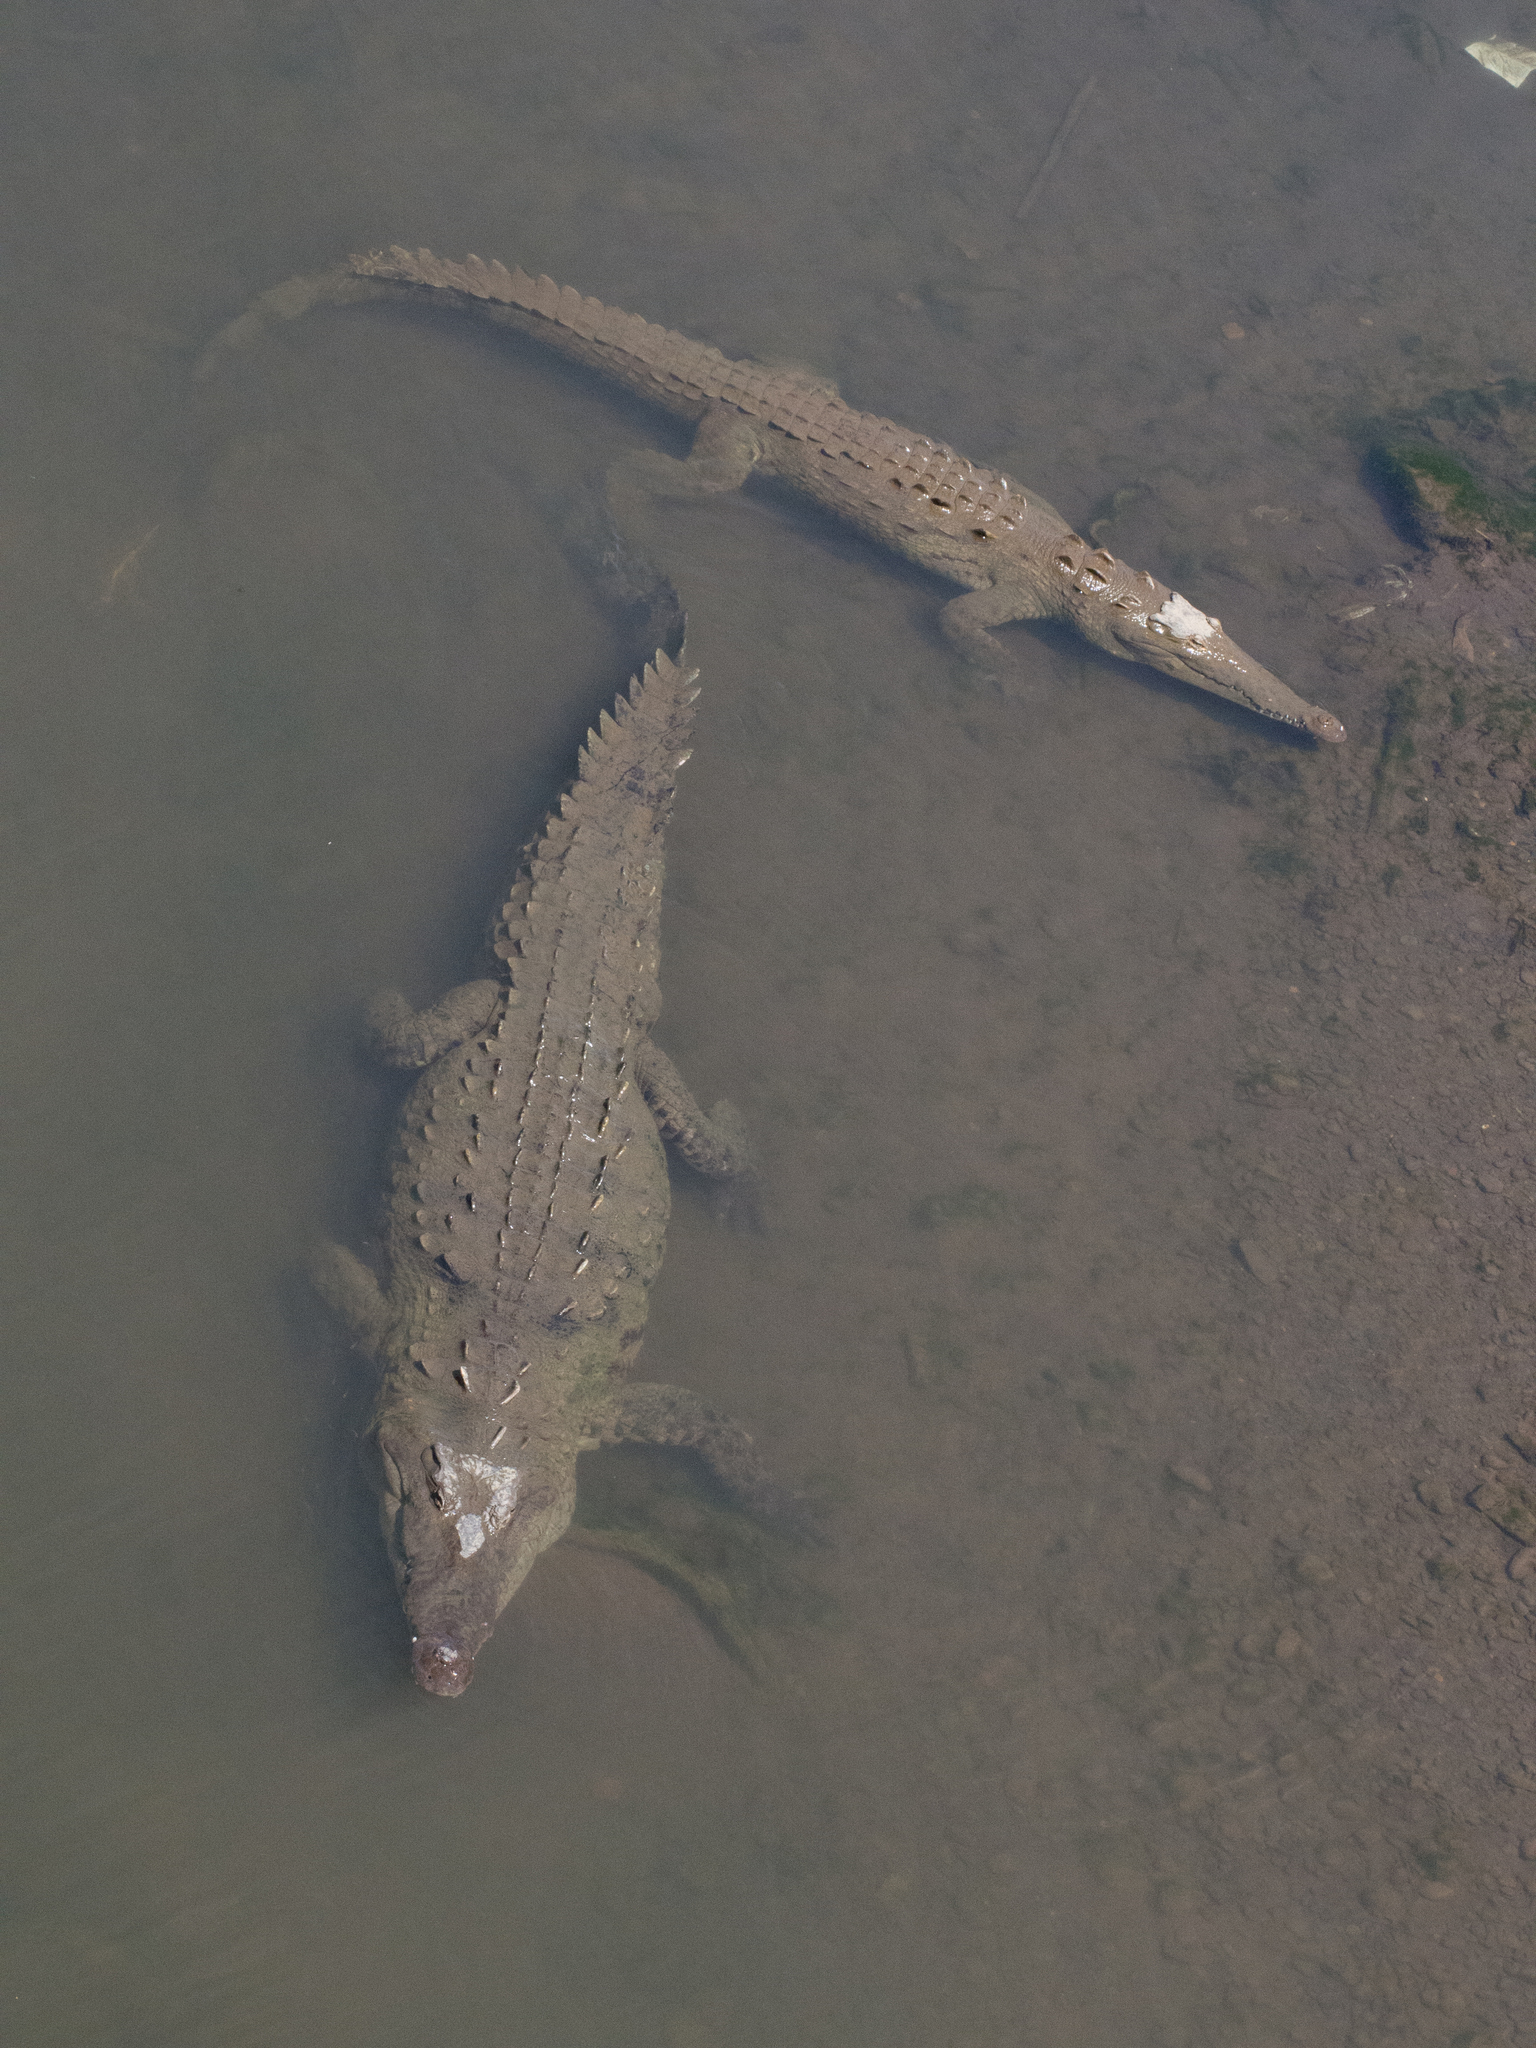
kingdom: Animalia
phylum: Chordata
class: Crocodylia
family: Crocodylidae
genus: Crocodylus
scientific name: Crocodylus acutus
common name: American crocodile
